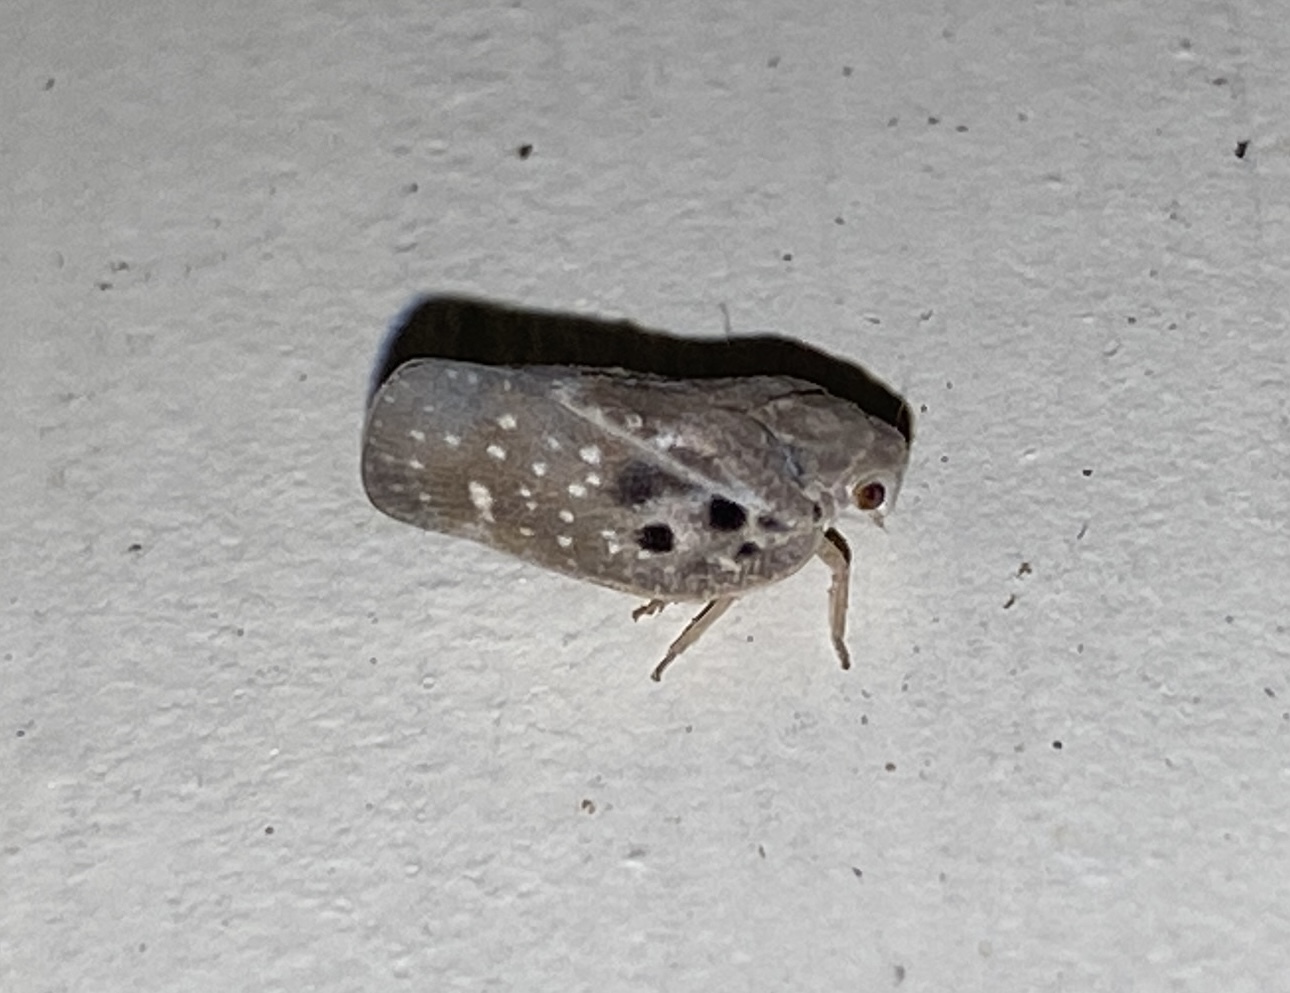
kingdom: Animalia
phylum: Arthropoda
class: Insecta
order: Hemiptera
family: Flatidae
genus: Metcalfa
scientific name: Metcalfa pruinosa
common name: Citrus flatid planthopper
